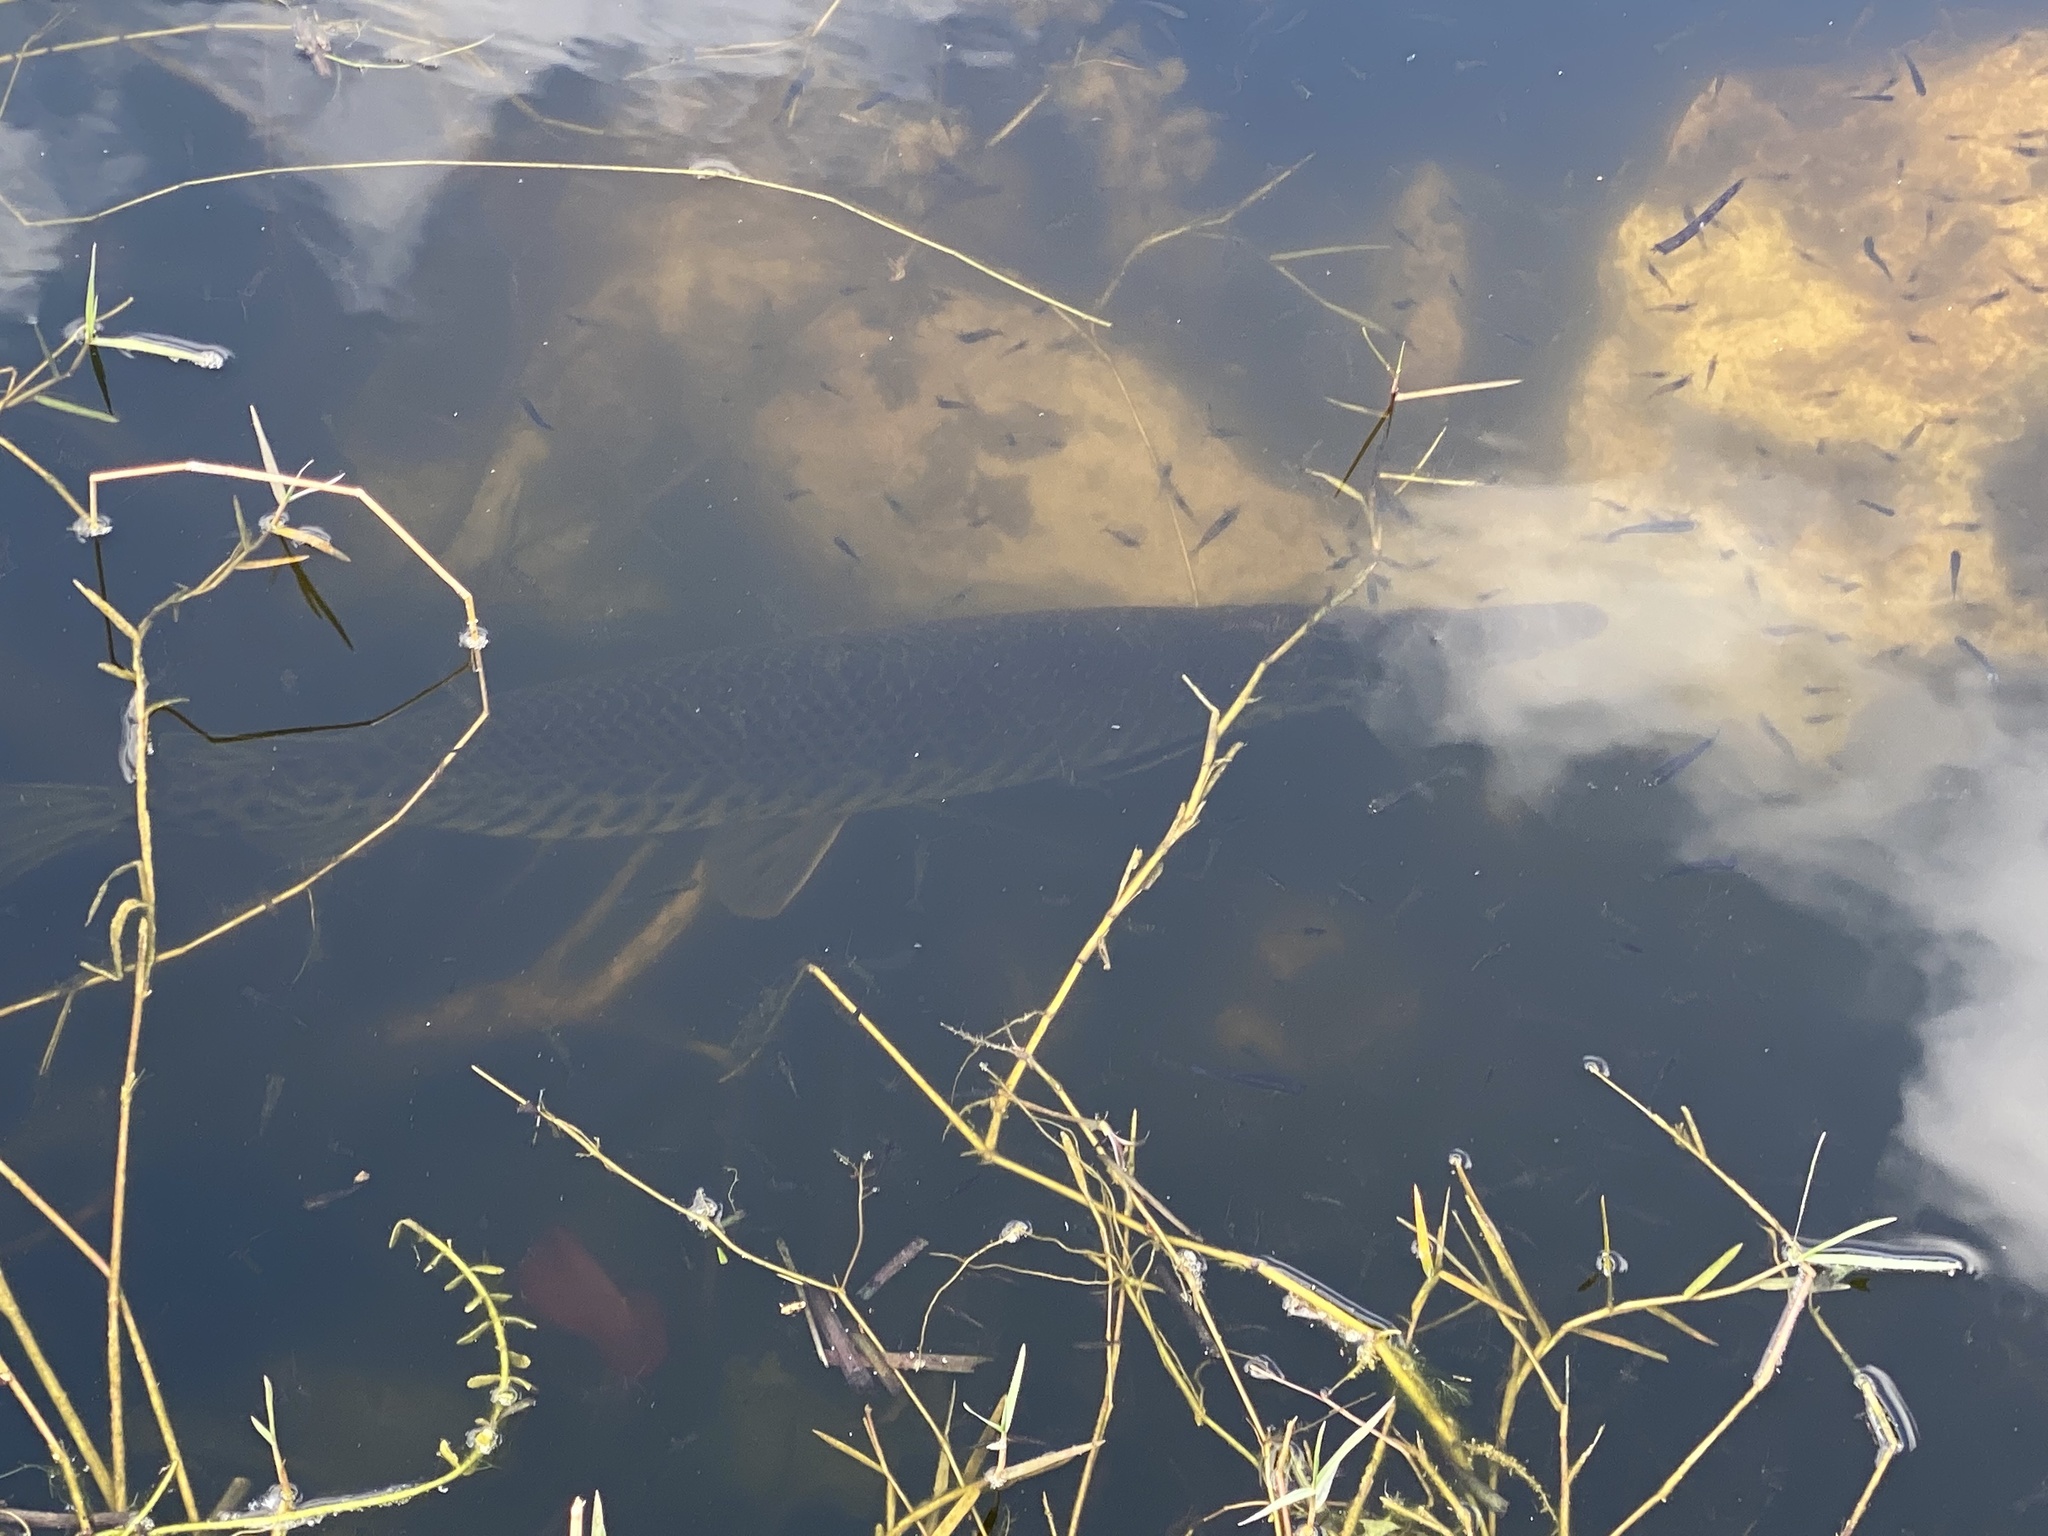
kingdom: Animalia
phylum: Chordata
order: Lepisosteiformes
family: Lepisosteidae
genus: Lepisosteus
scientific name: Lepisosteus platyrhincus
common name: Florida gar
